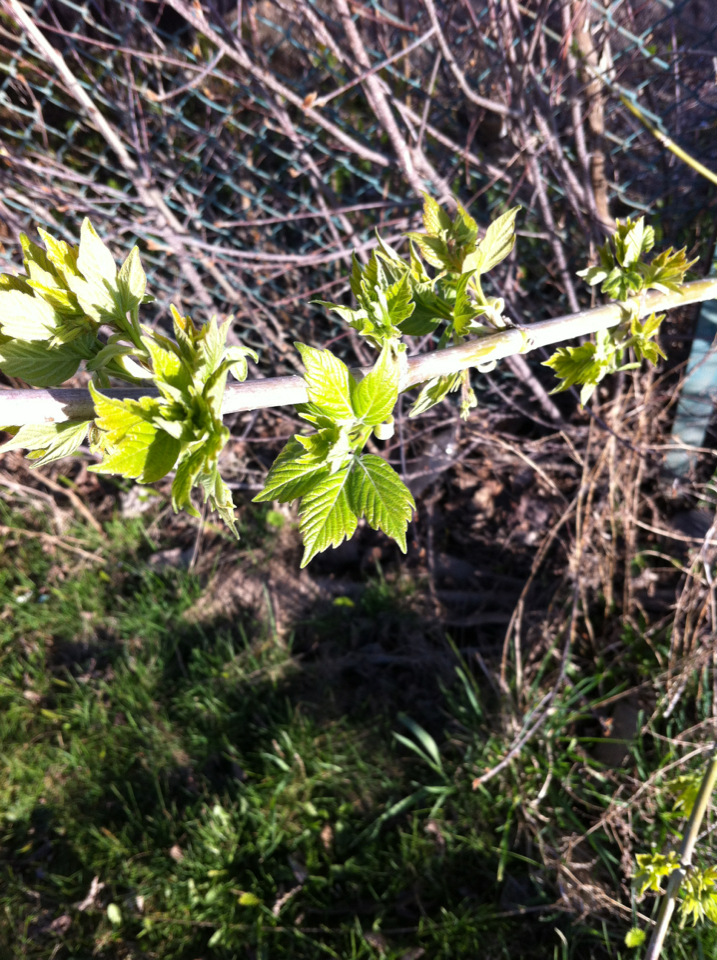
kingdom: Plantae
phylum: Tracheophyta
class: Magnoliopsida
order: Sapindales
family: Sapindaceae
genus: Acer
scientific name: Acer negundo
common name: Ashleaf maple
